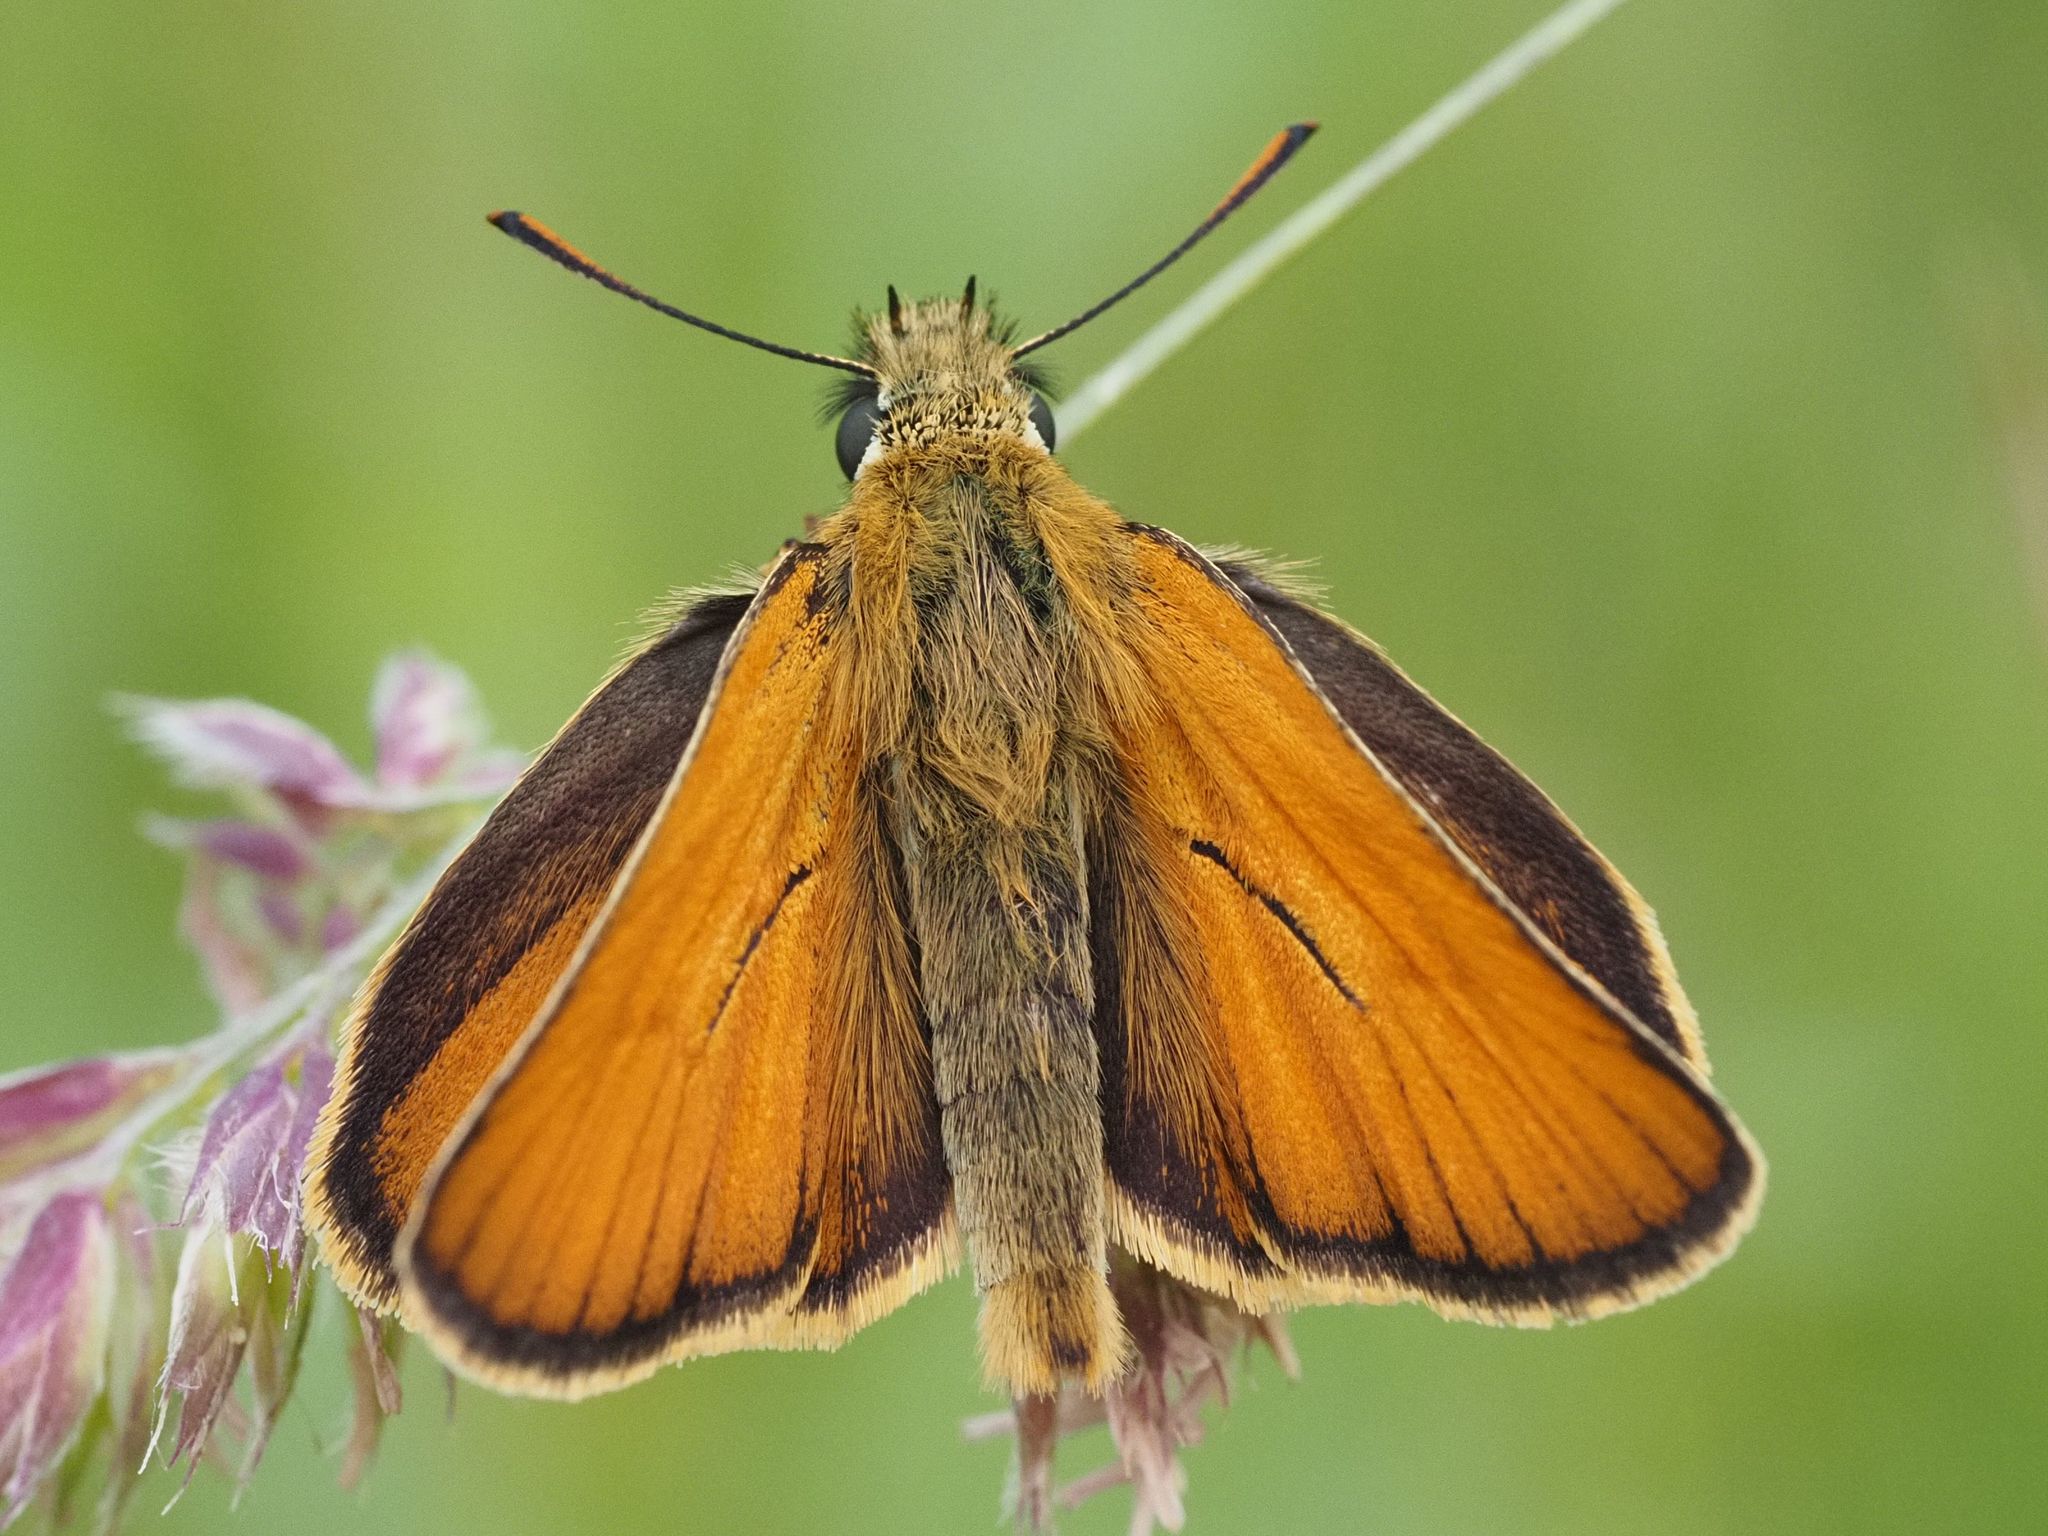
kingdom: Animalia
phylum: Arthropoda
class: Insecta
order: Lepidoptera
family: Hesperiidae
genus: Thymelicus
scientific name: Thymelicus sylvestris
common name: Small skipper
